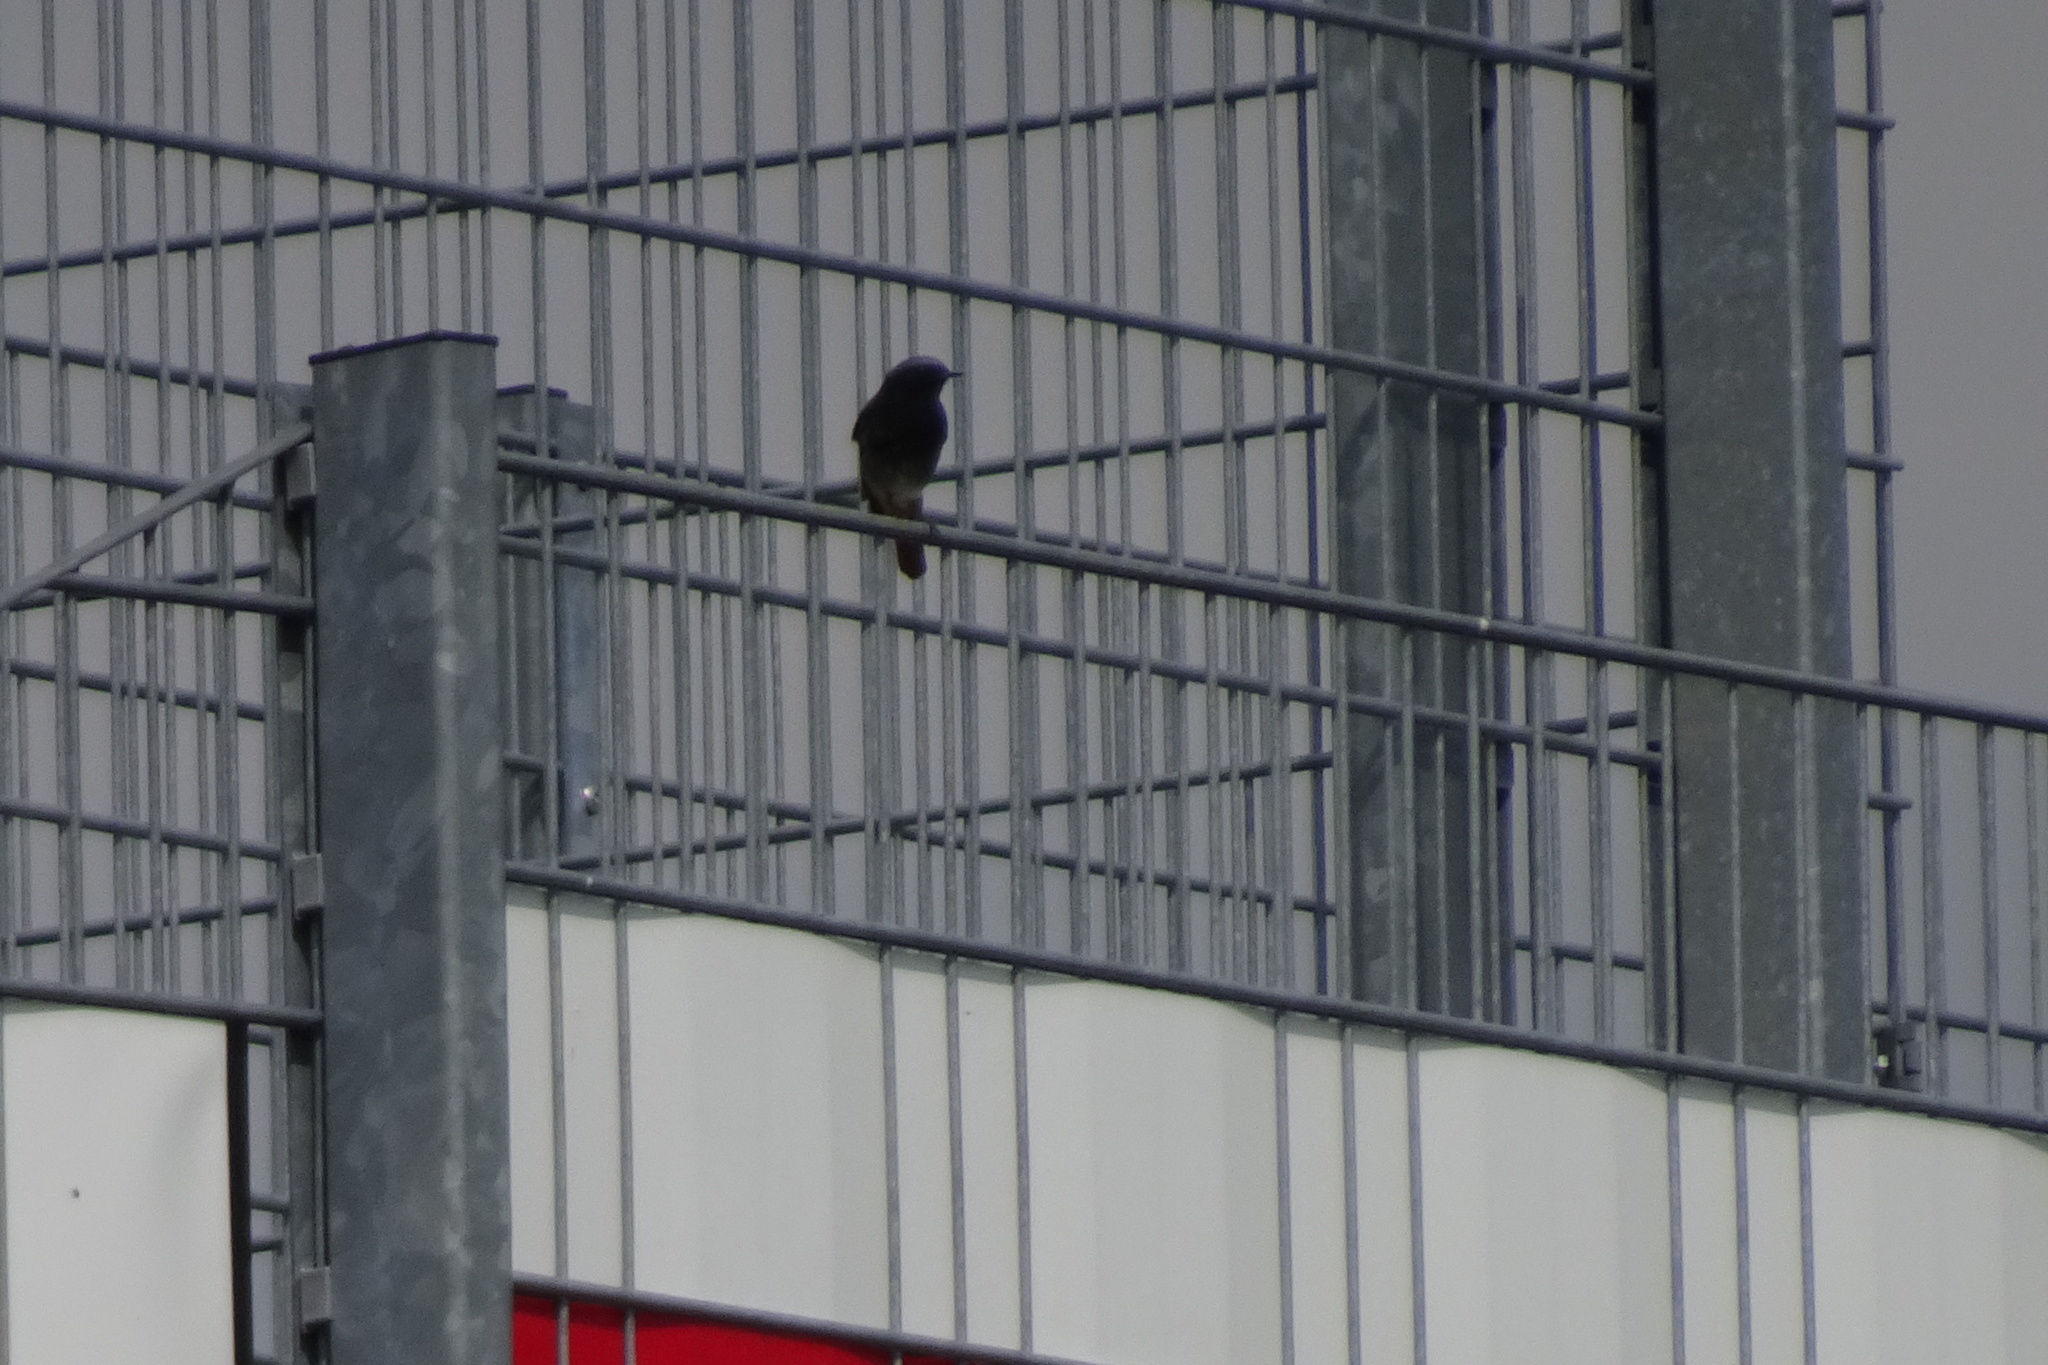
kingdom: Animalia
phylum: Chordata
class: Aves
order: Passeriformes
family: Muscicapidae
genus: Phoenicurus
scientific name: Phoenicurus ochruros
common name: Black redstart
